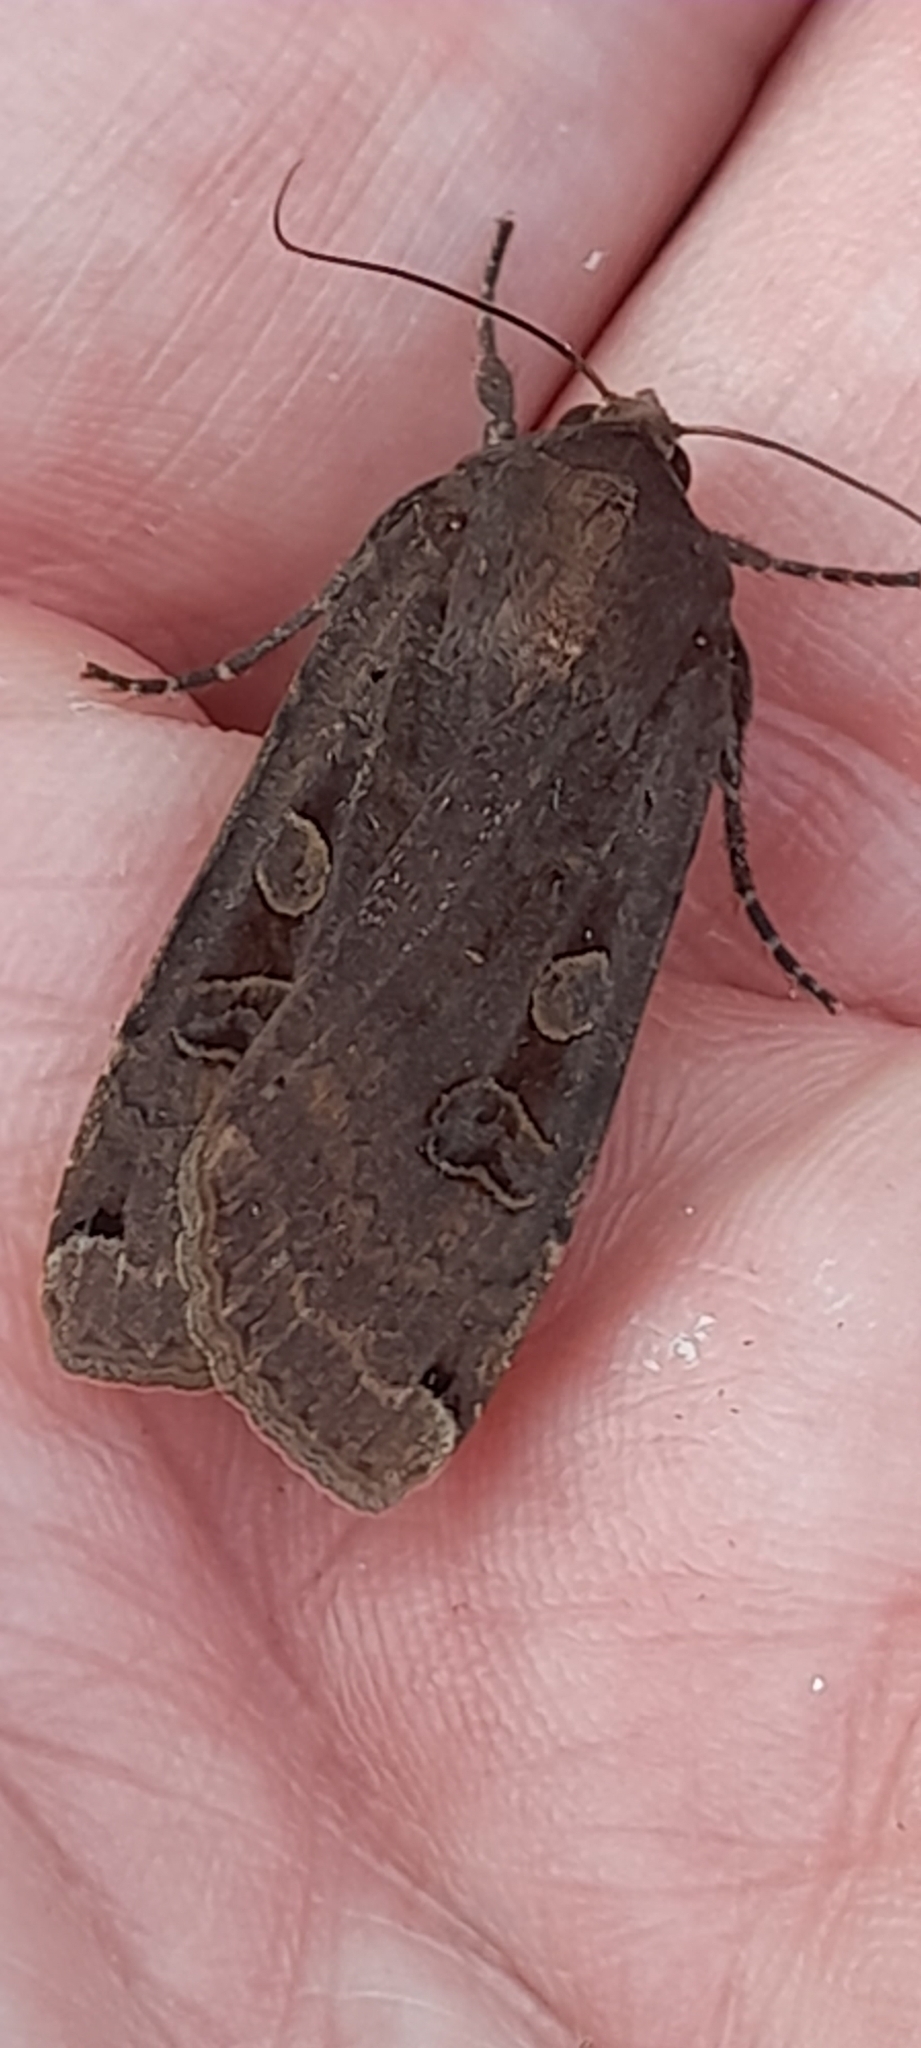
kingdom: Animalia
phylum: Arthropoda
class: Insecta
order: Lepidoptera
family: Noctuidae
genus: Noctua
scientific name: Noctua pronuba
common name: Large yellow underwing
